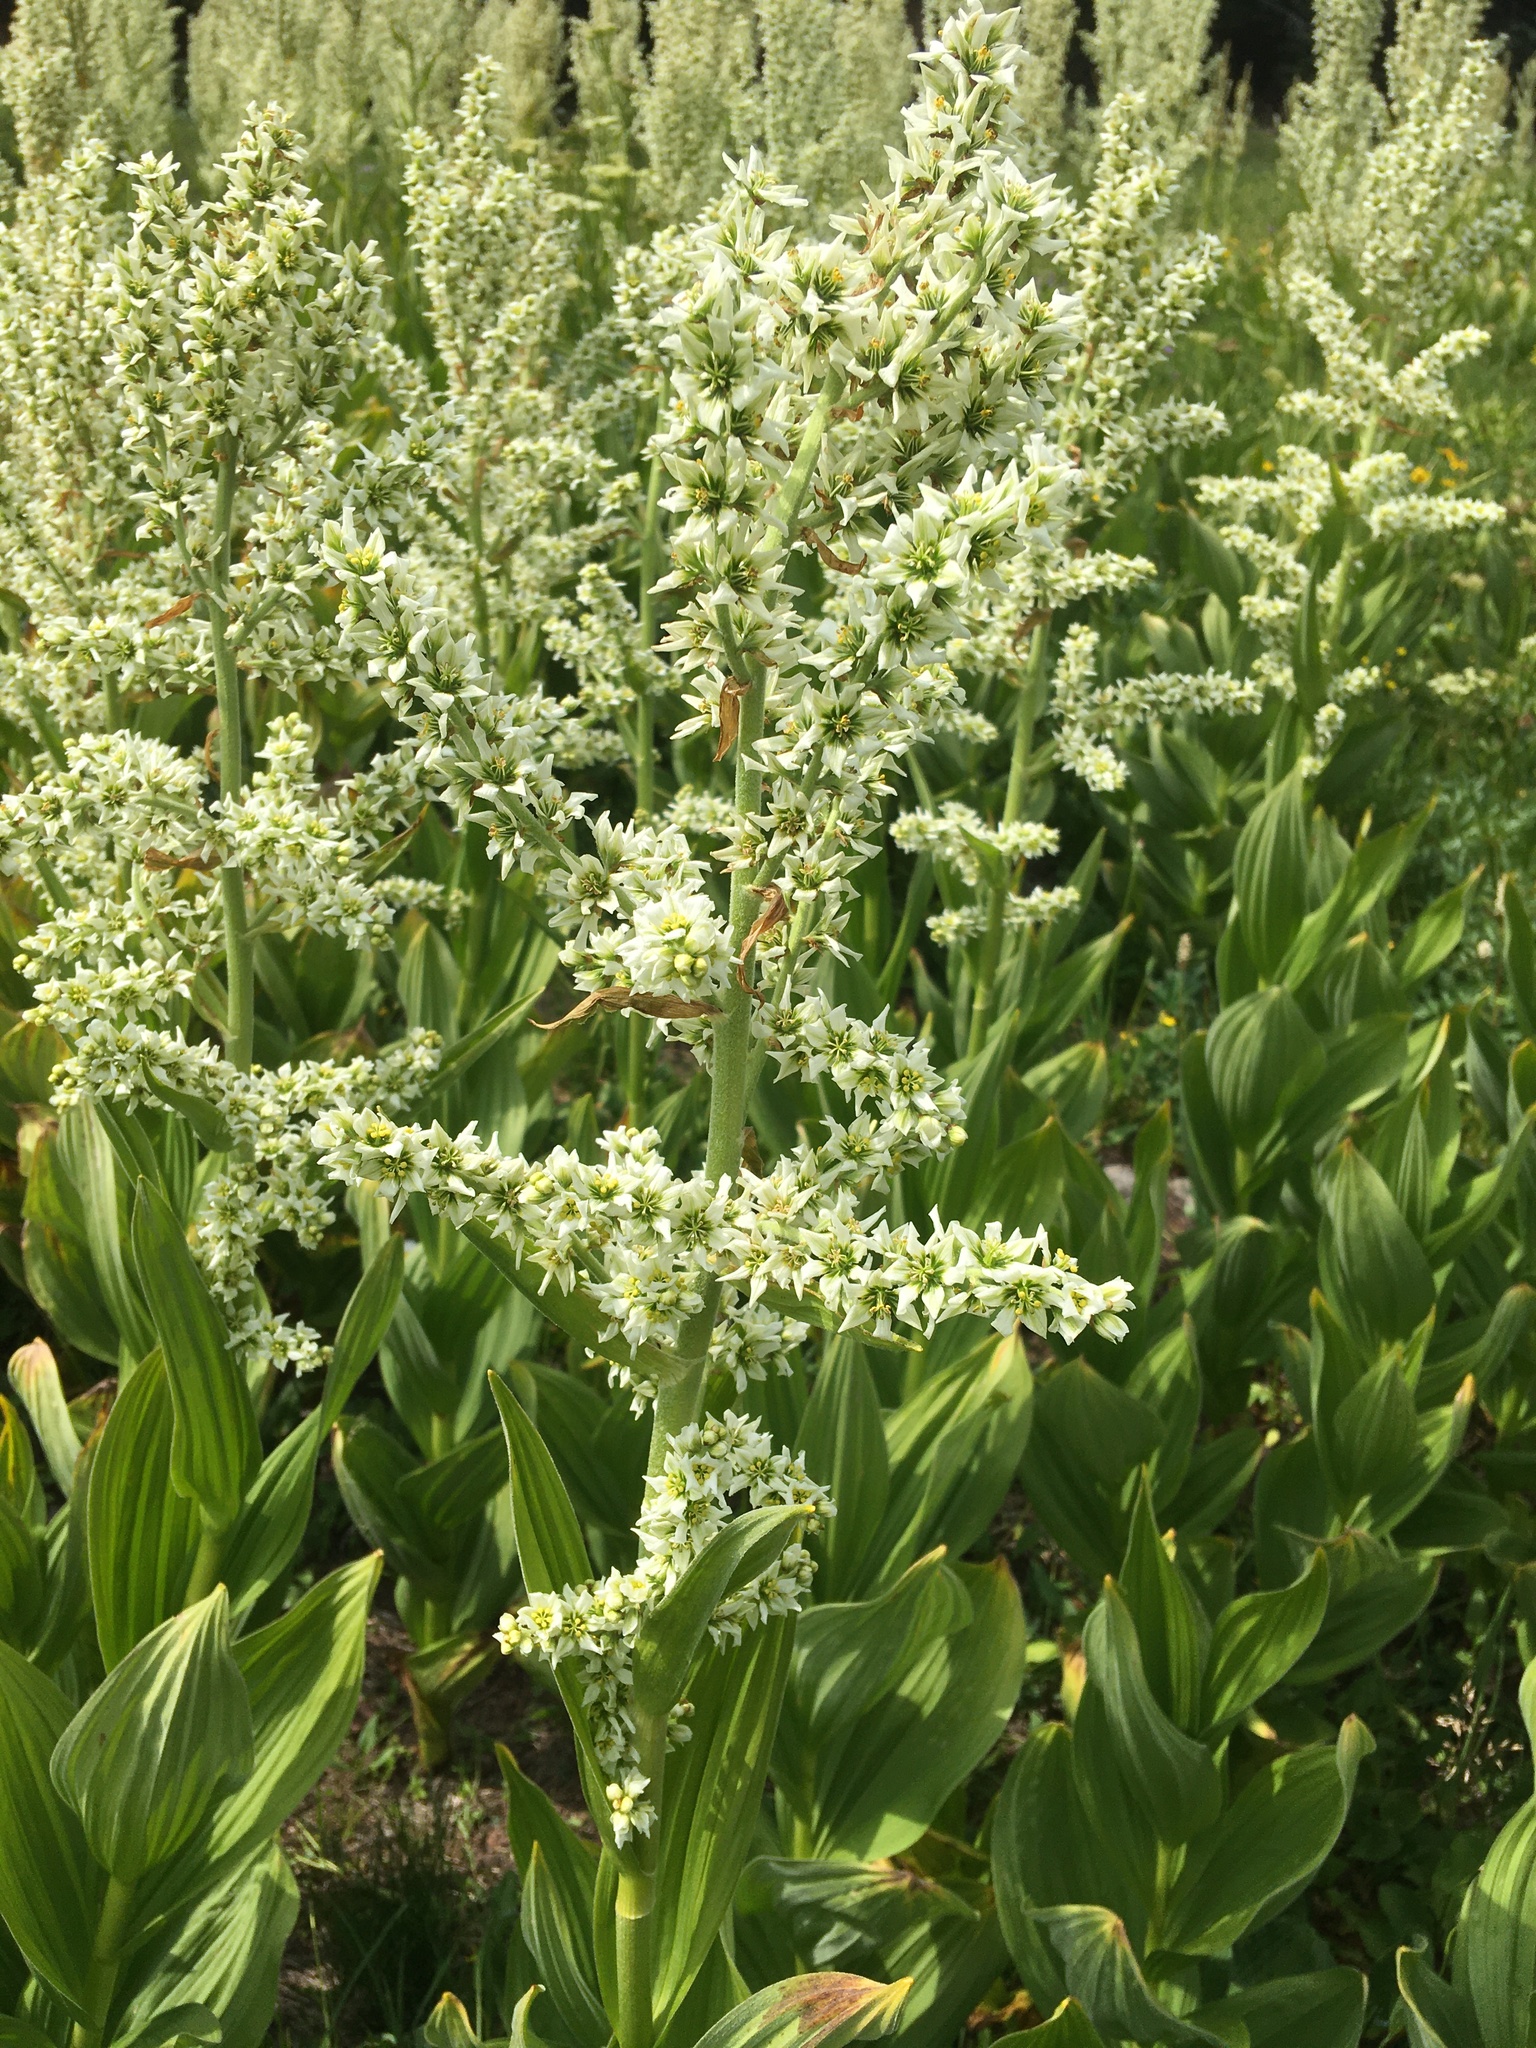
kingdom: Plantae
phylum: Tracheophyta
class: Liliopsida
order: Liliales
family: Melanthiaceae
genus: Veratrum
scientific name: Veratrum californicum
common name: California veratrum
